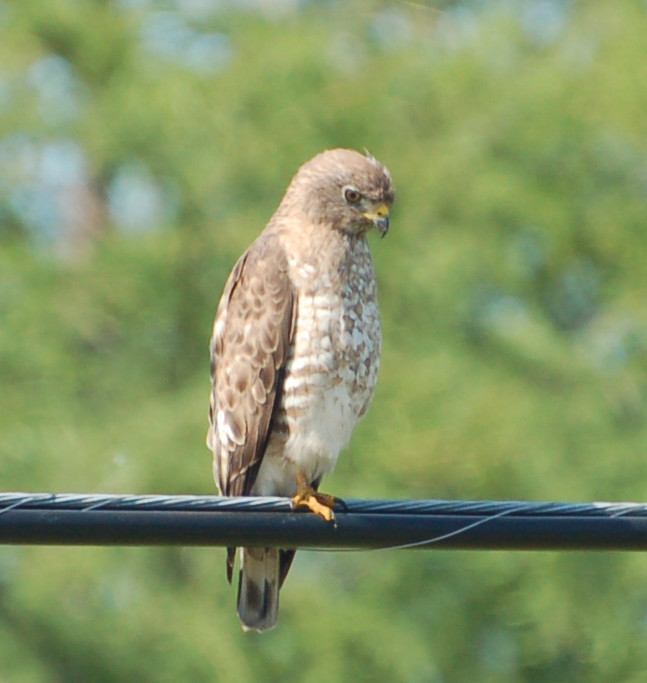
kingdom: Animalia
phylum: Chordata
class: Aves
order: Accipitriformes
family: Accipitridae
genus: Buteo
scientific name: Buteo platypterus
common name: Broad-winged hawk
